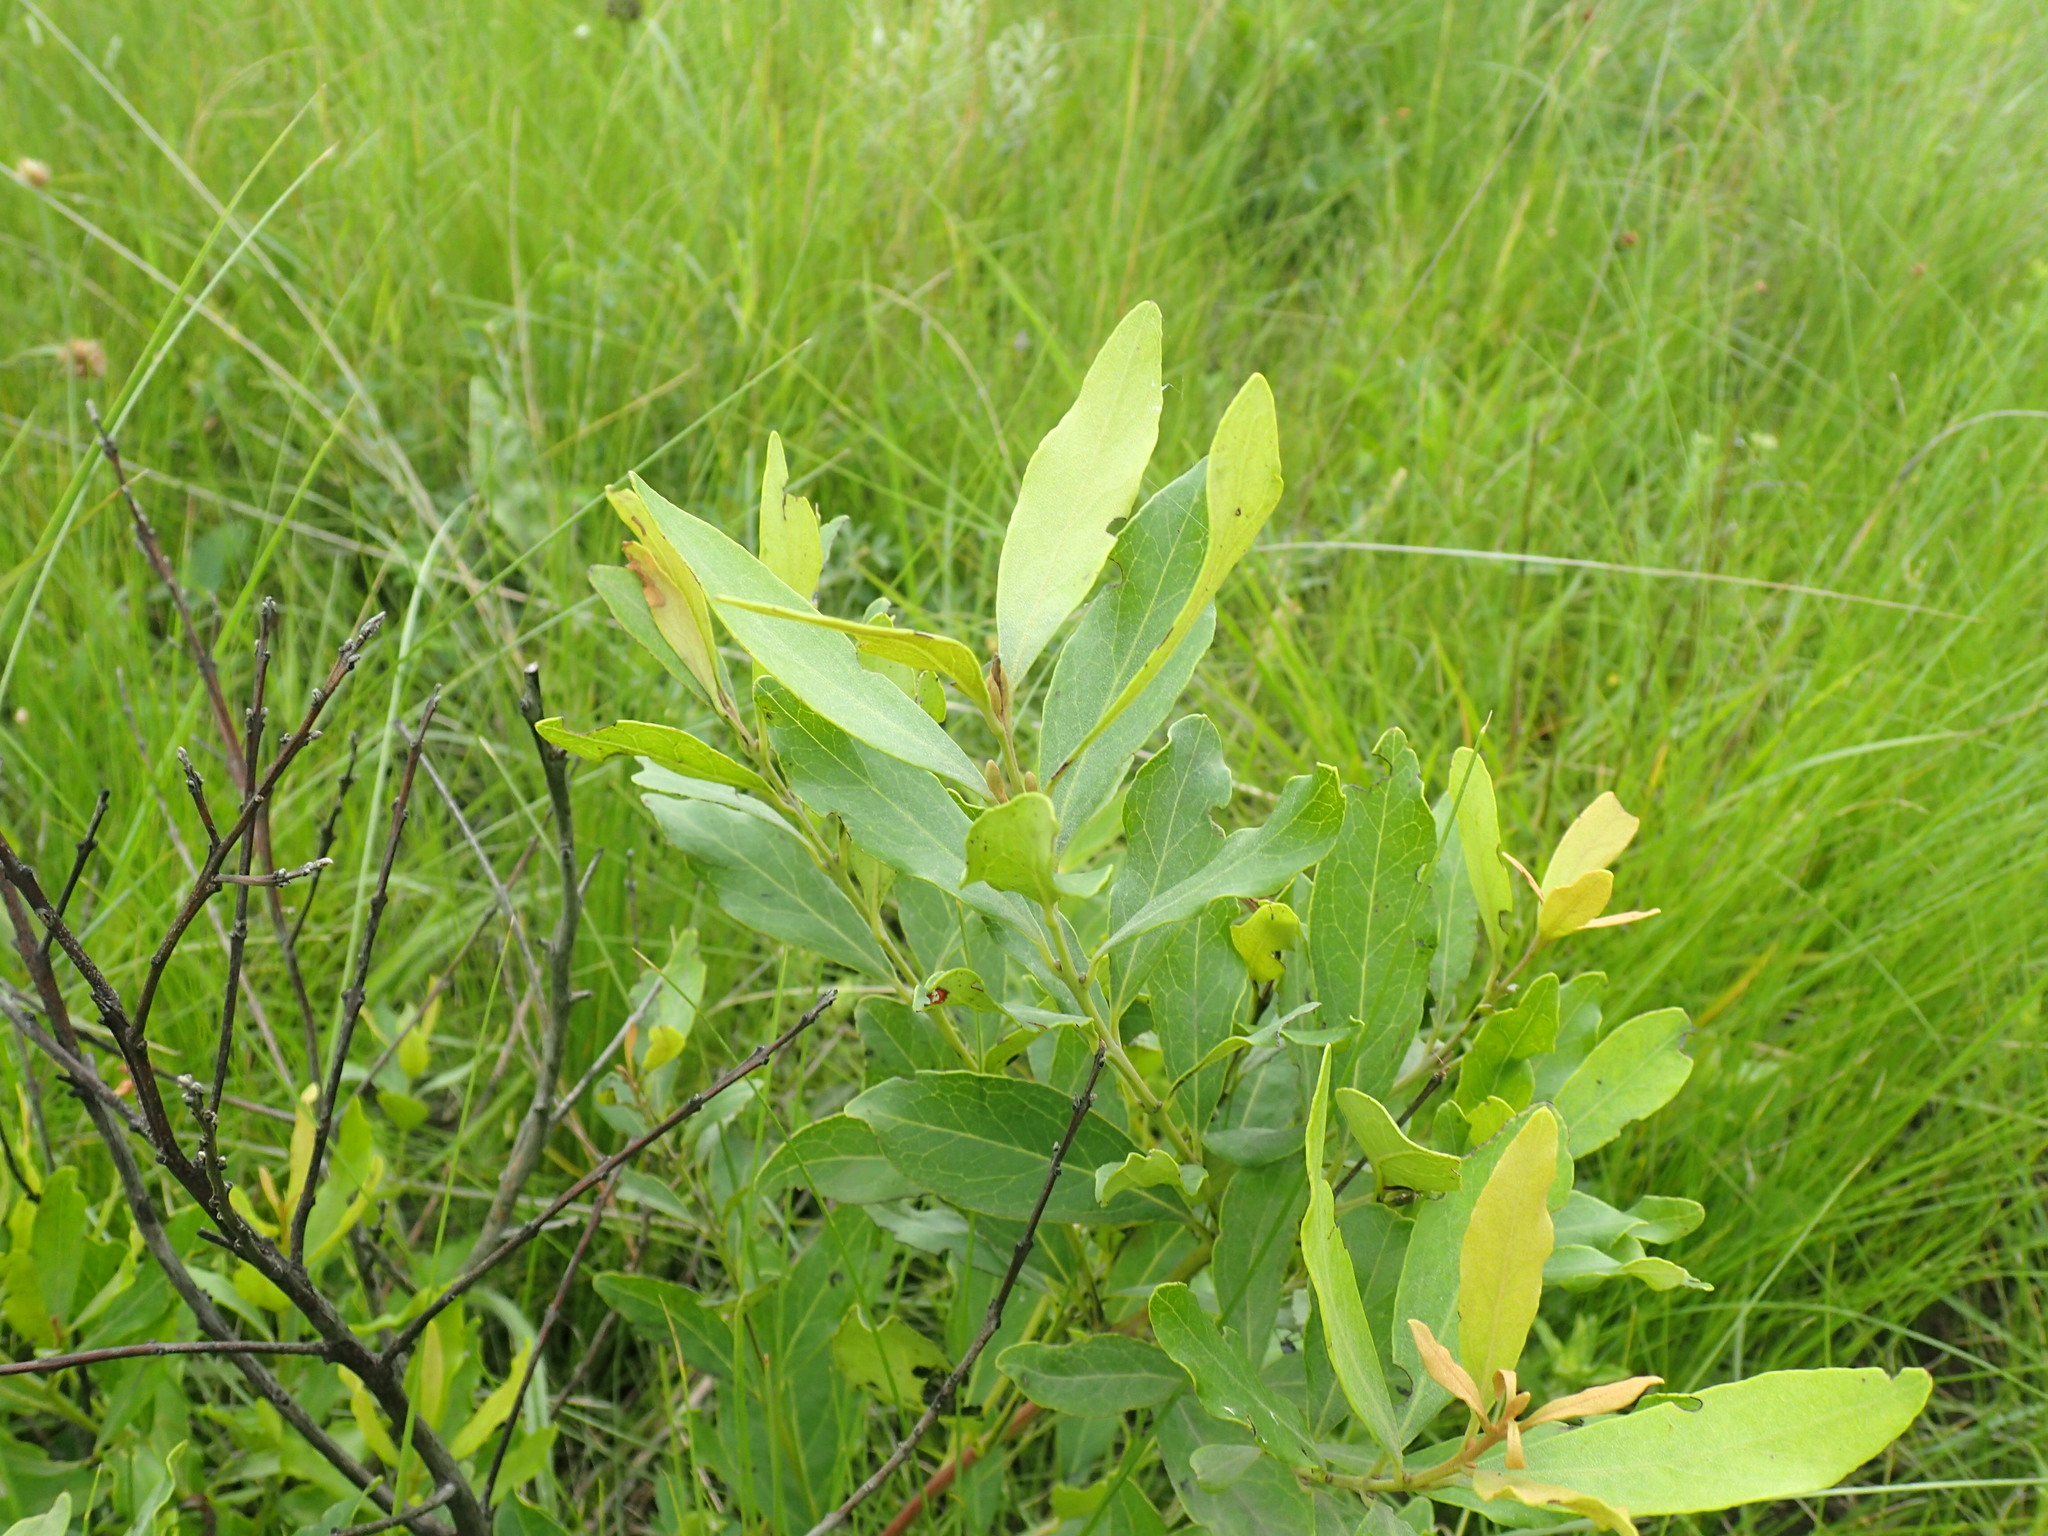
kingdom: Plantae
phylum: Tracheophyta
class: Magnoliopsida
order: Ericales
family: Ebenaceae
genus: Euclea
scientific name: Euclea crispa
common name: Blue guarri
